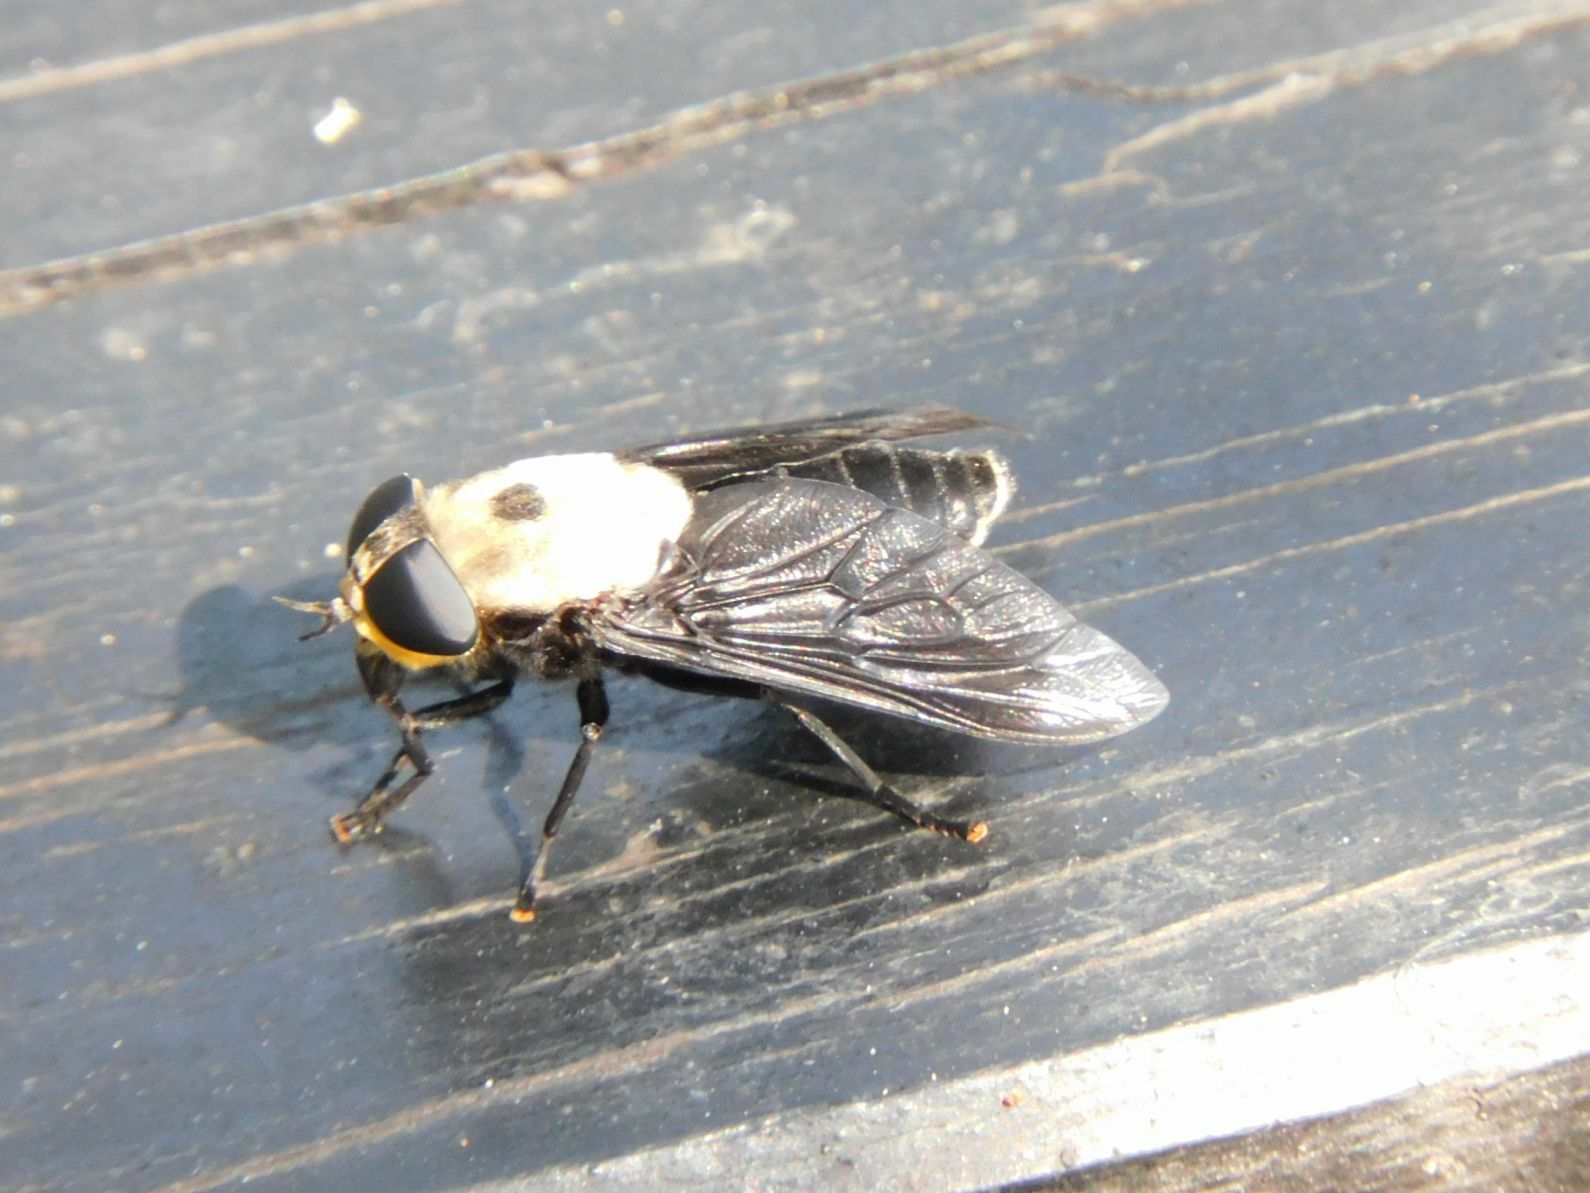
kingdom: Animalia
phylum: Arthropoda
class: Insecta
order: Diptera
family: Tabanidae
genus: Tabanus
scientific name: Tabanus biguttatus
